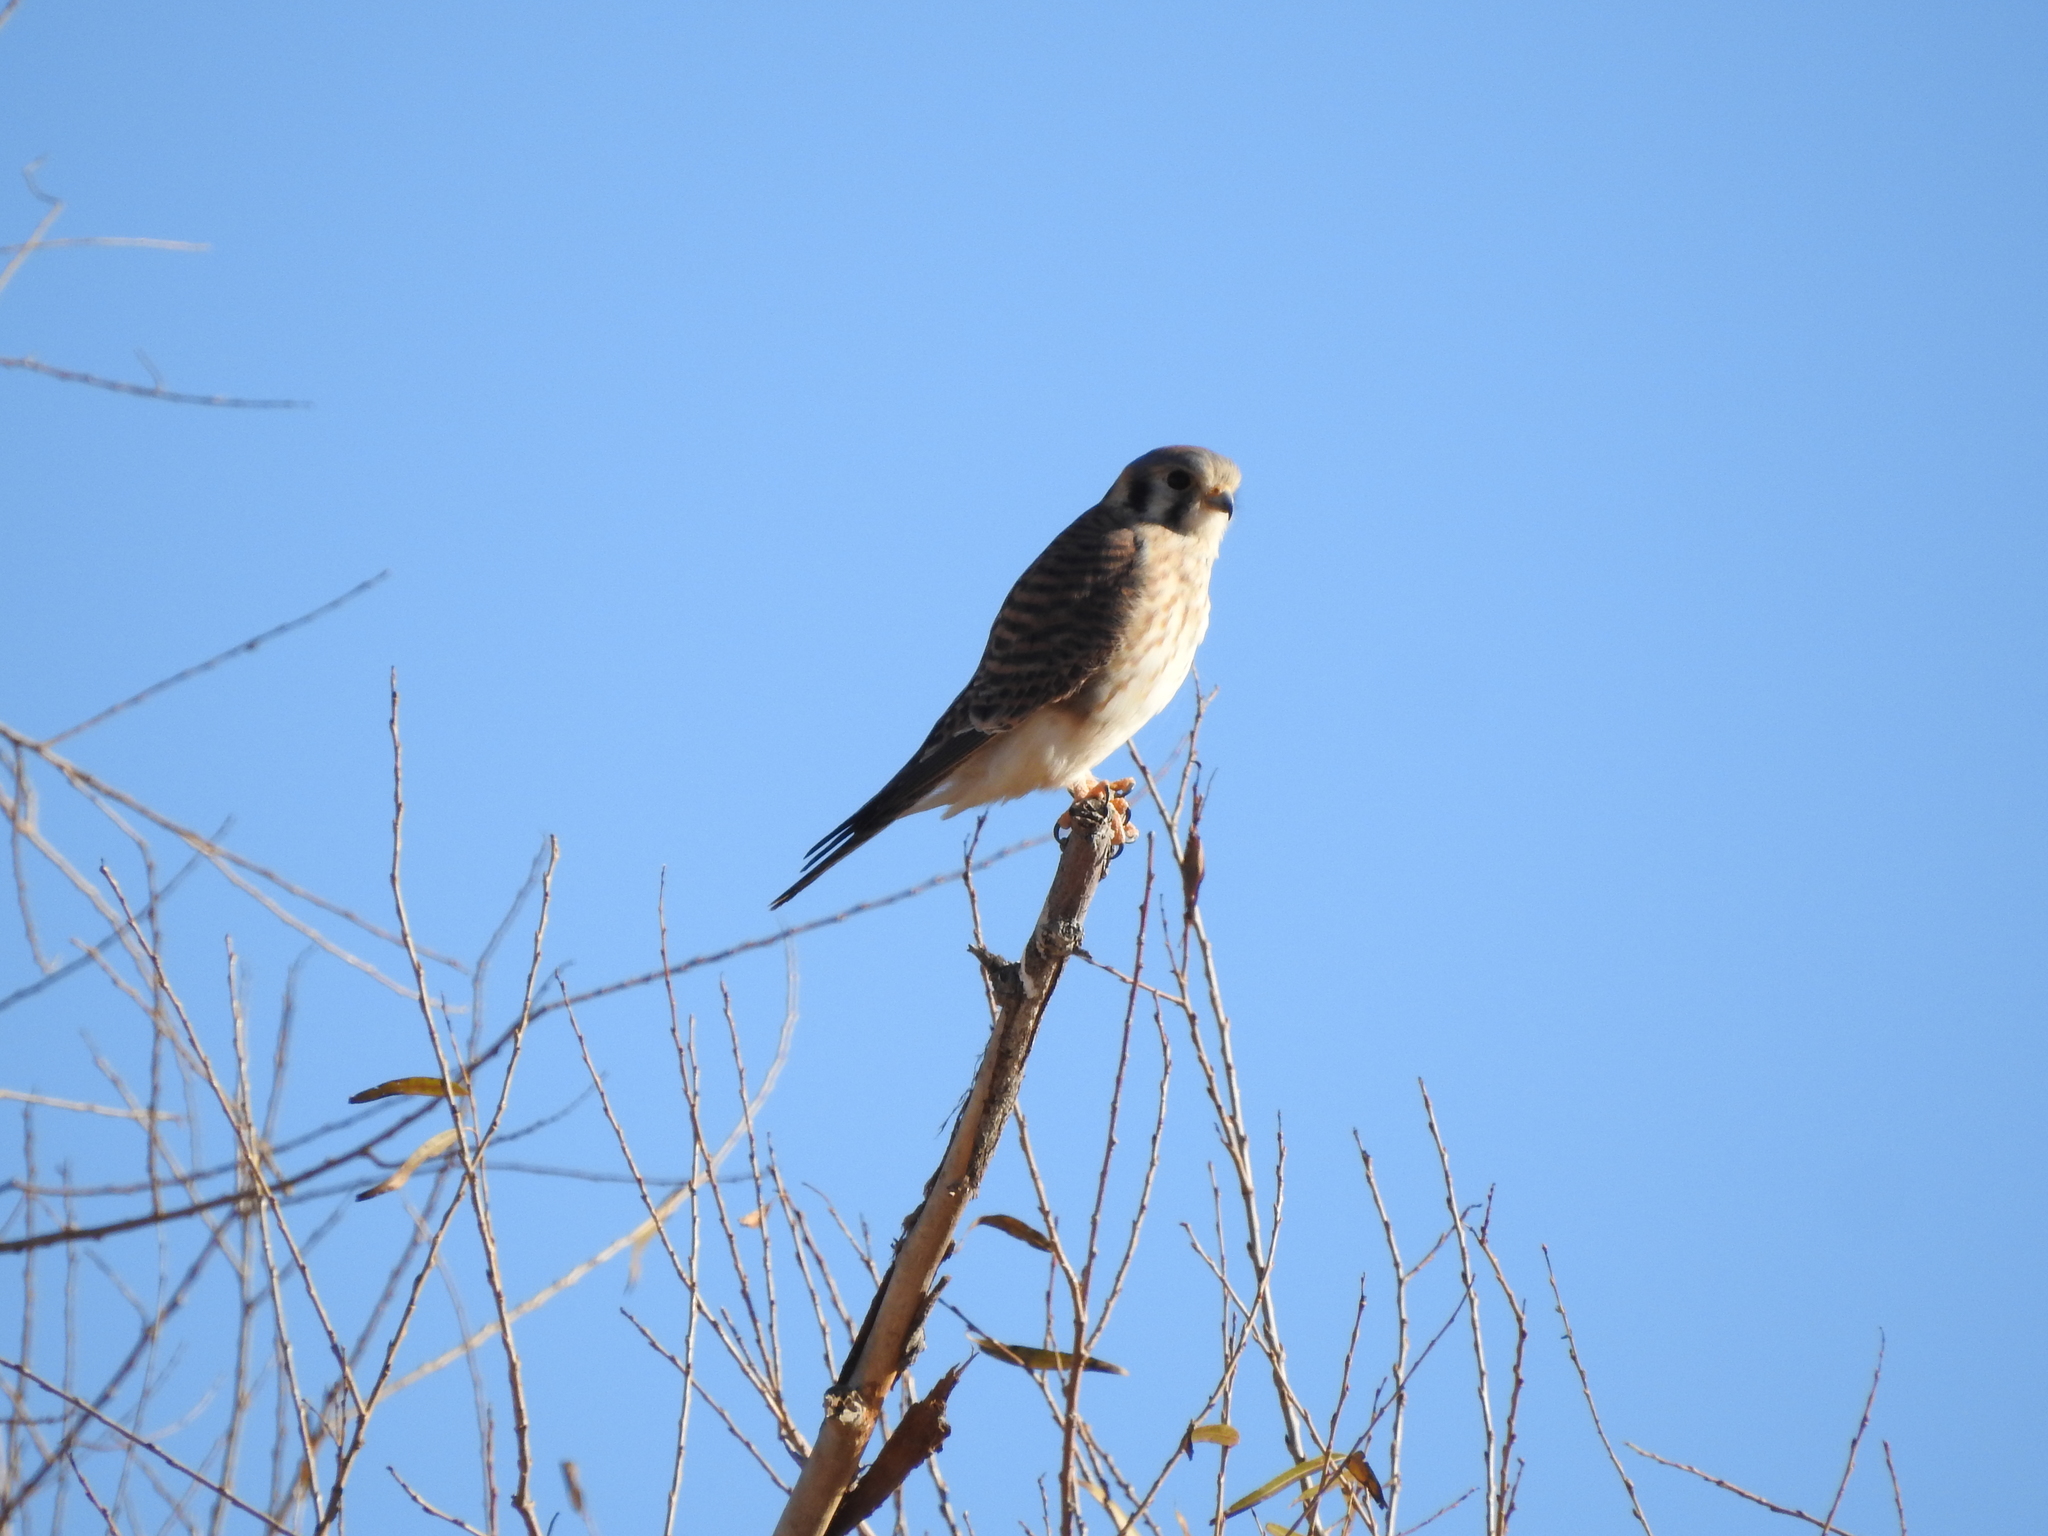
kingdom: Animalia
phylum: Chordata
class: Aves
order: Falconiformes
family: Falconidae
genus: Falco
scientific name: Falco sparverius
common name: American kestrel
